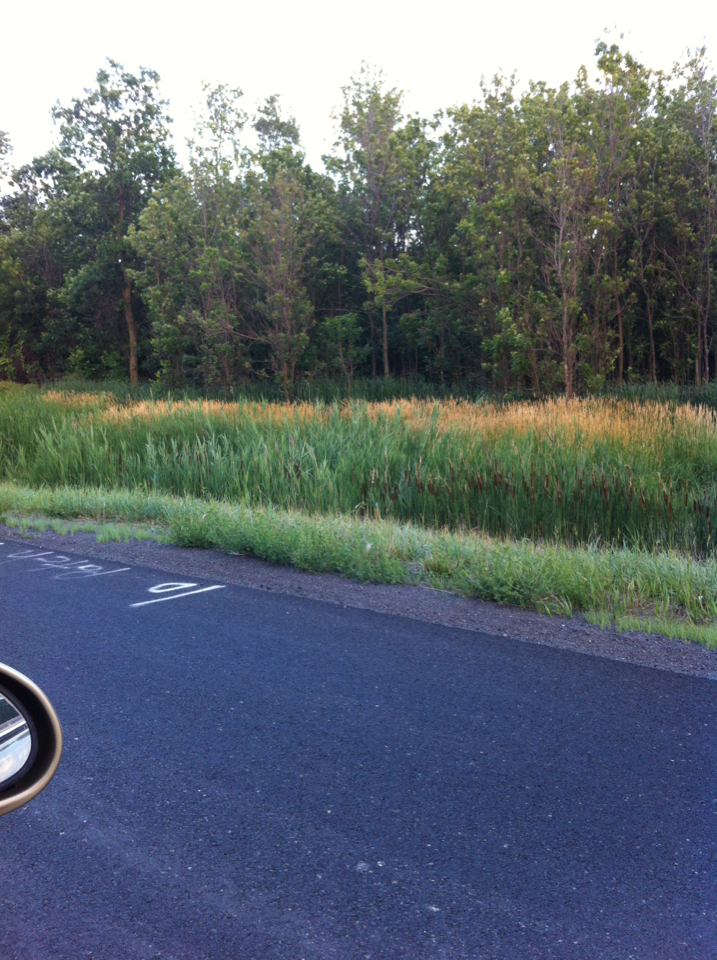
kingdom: Plantae
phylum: Tracheophyta
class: Liliopsida
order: Poales
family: Poaceae
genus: Phalaris
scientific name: Phalaris arundinacea
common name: Reed canary-grass
